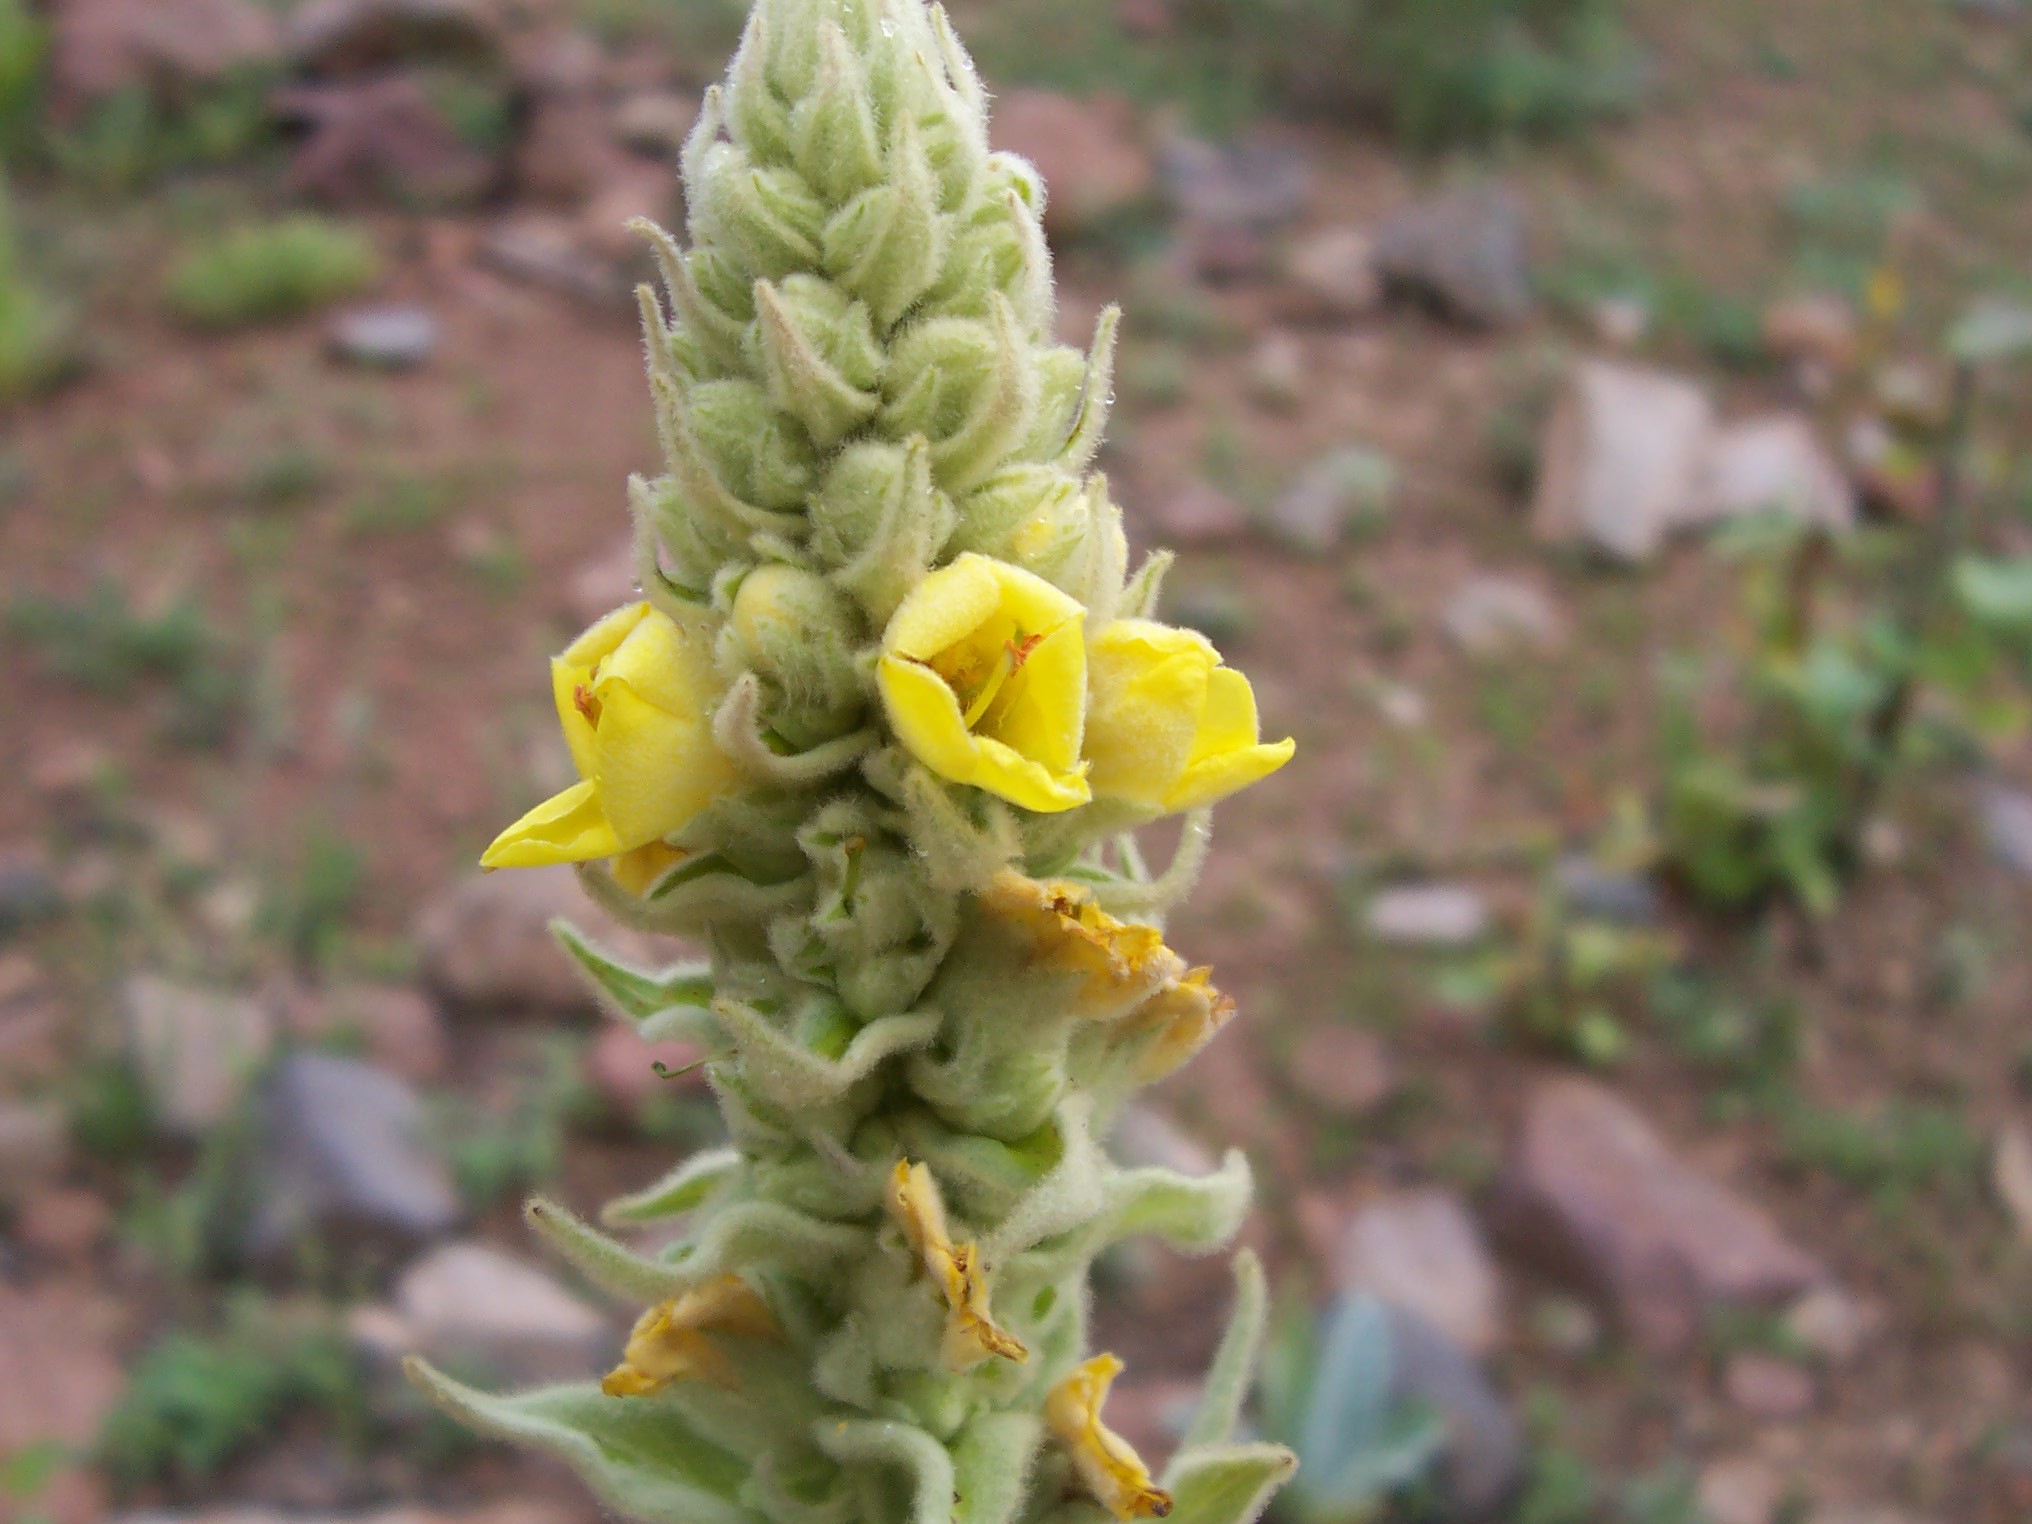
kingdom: Plantae
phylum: Tracheophyta
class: Magnoliopsida
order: Lamiales
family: Scrophulariaceae
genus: Verbascum
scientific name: Verbascum thapsus
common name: Common mullein
